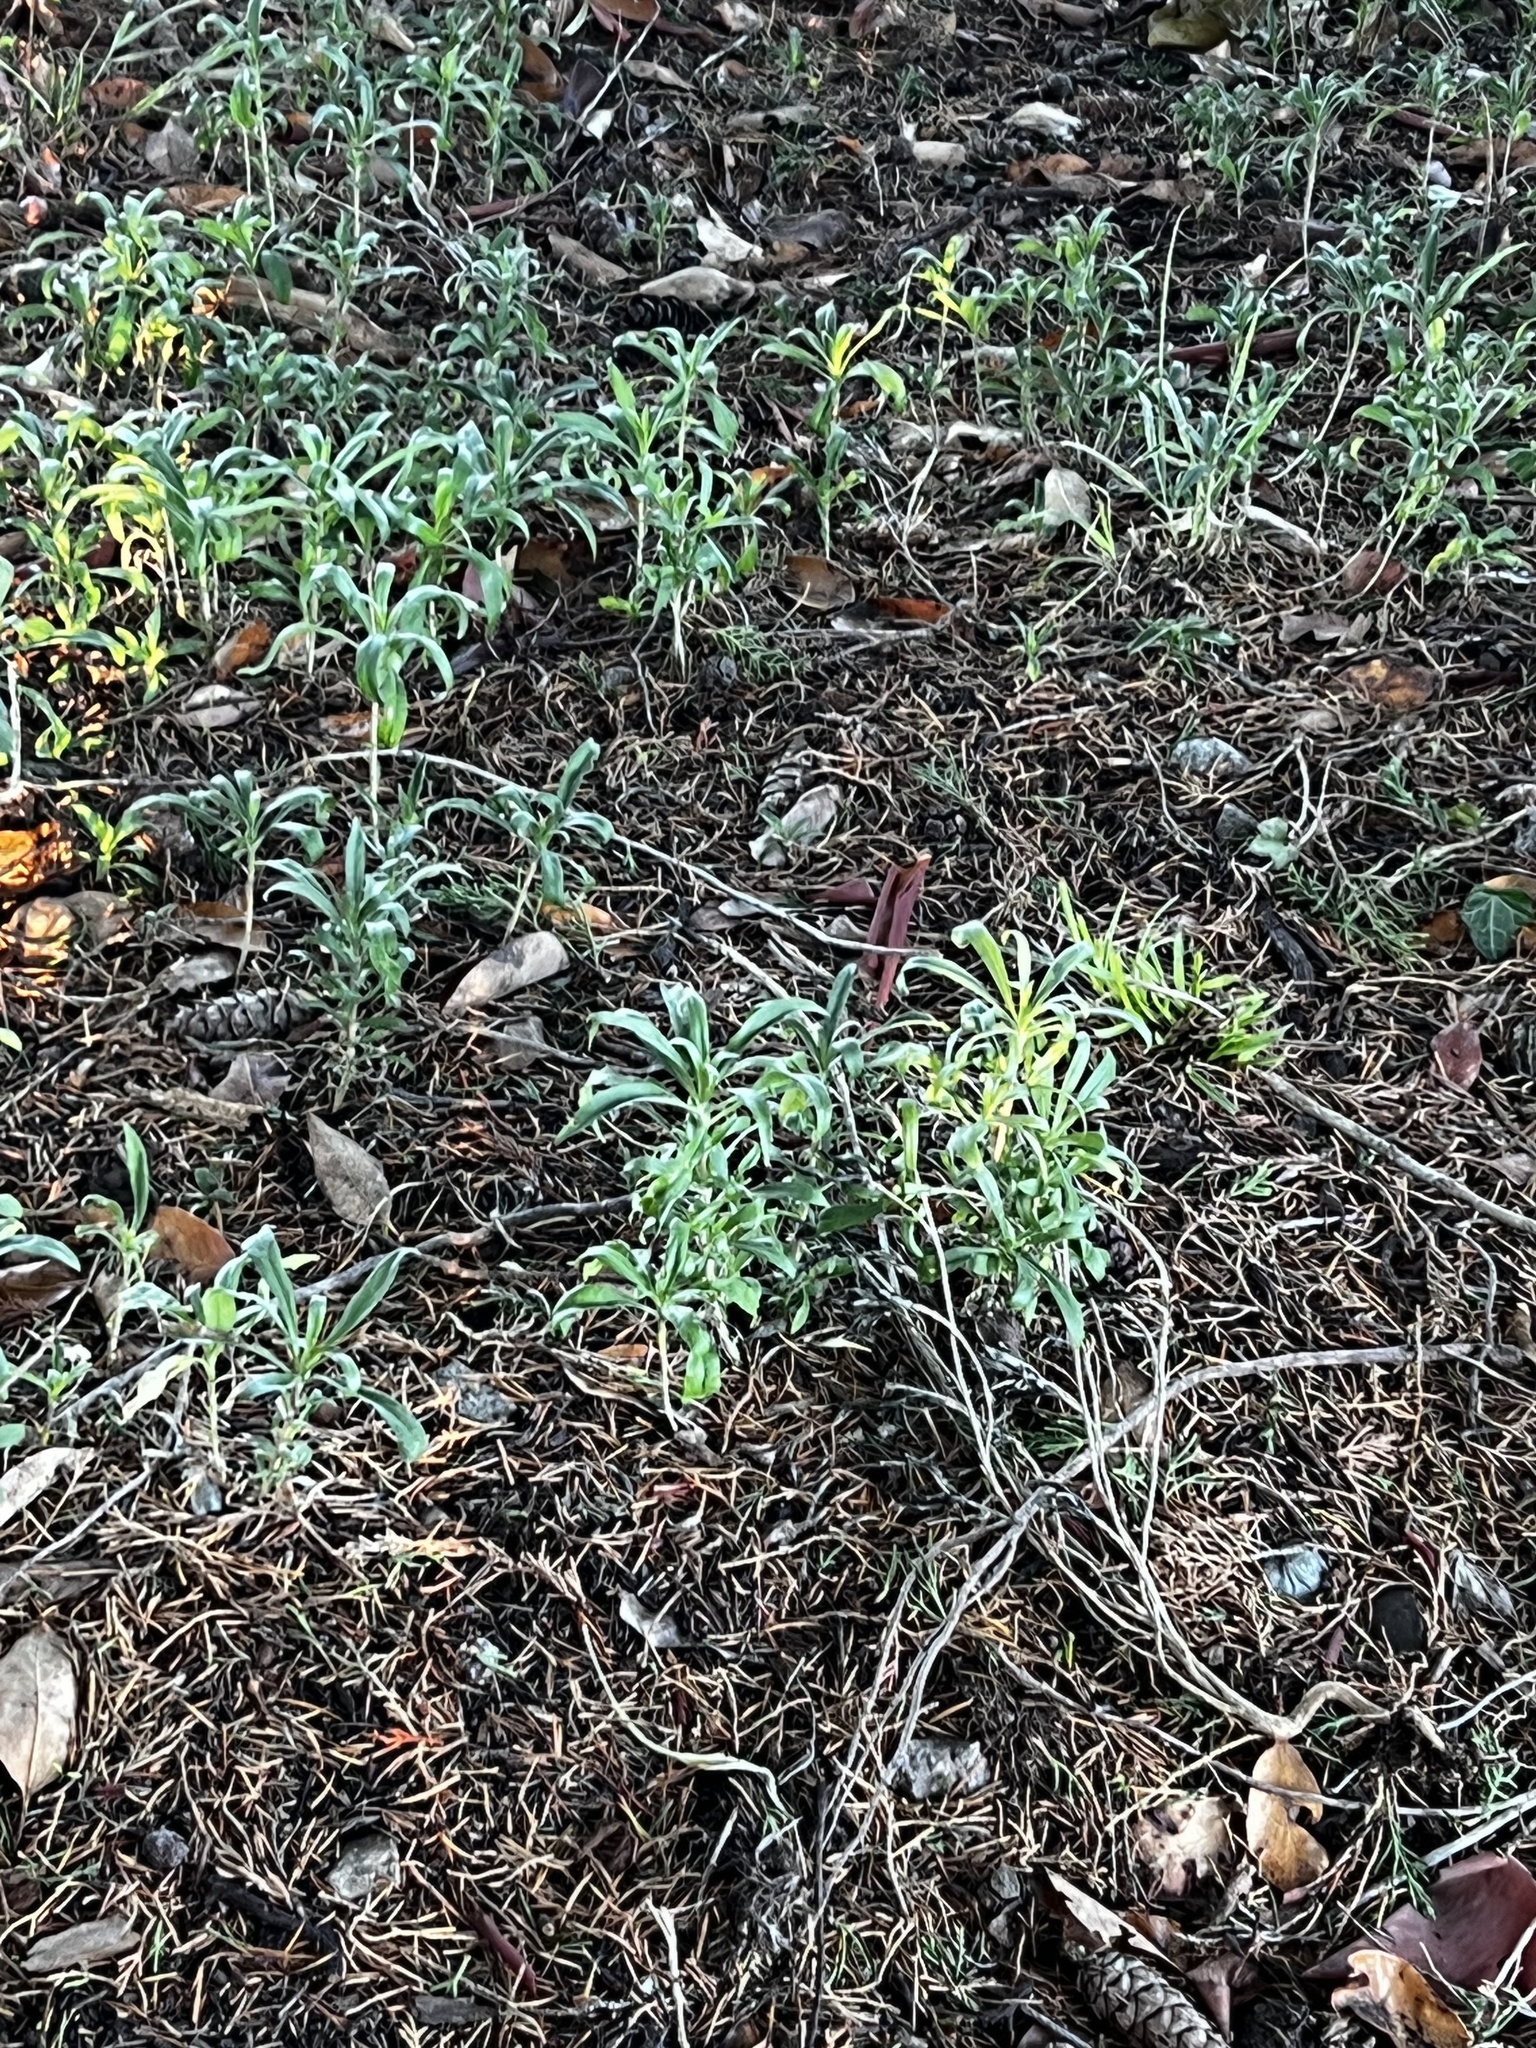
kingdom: Plantae
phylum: Tracheophyta
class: Magnoliopsida
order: Malvales
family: Thymelaeaceae
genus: Daphne
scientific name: Daphne laureola
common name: Spurge-laurel
